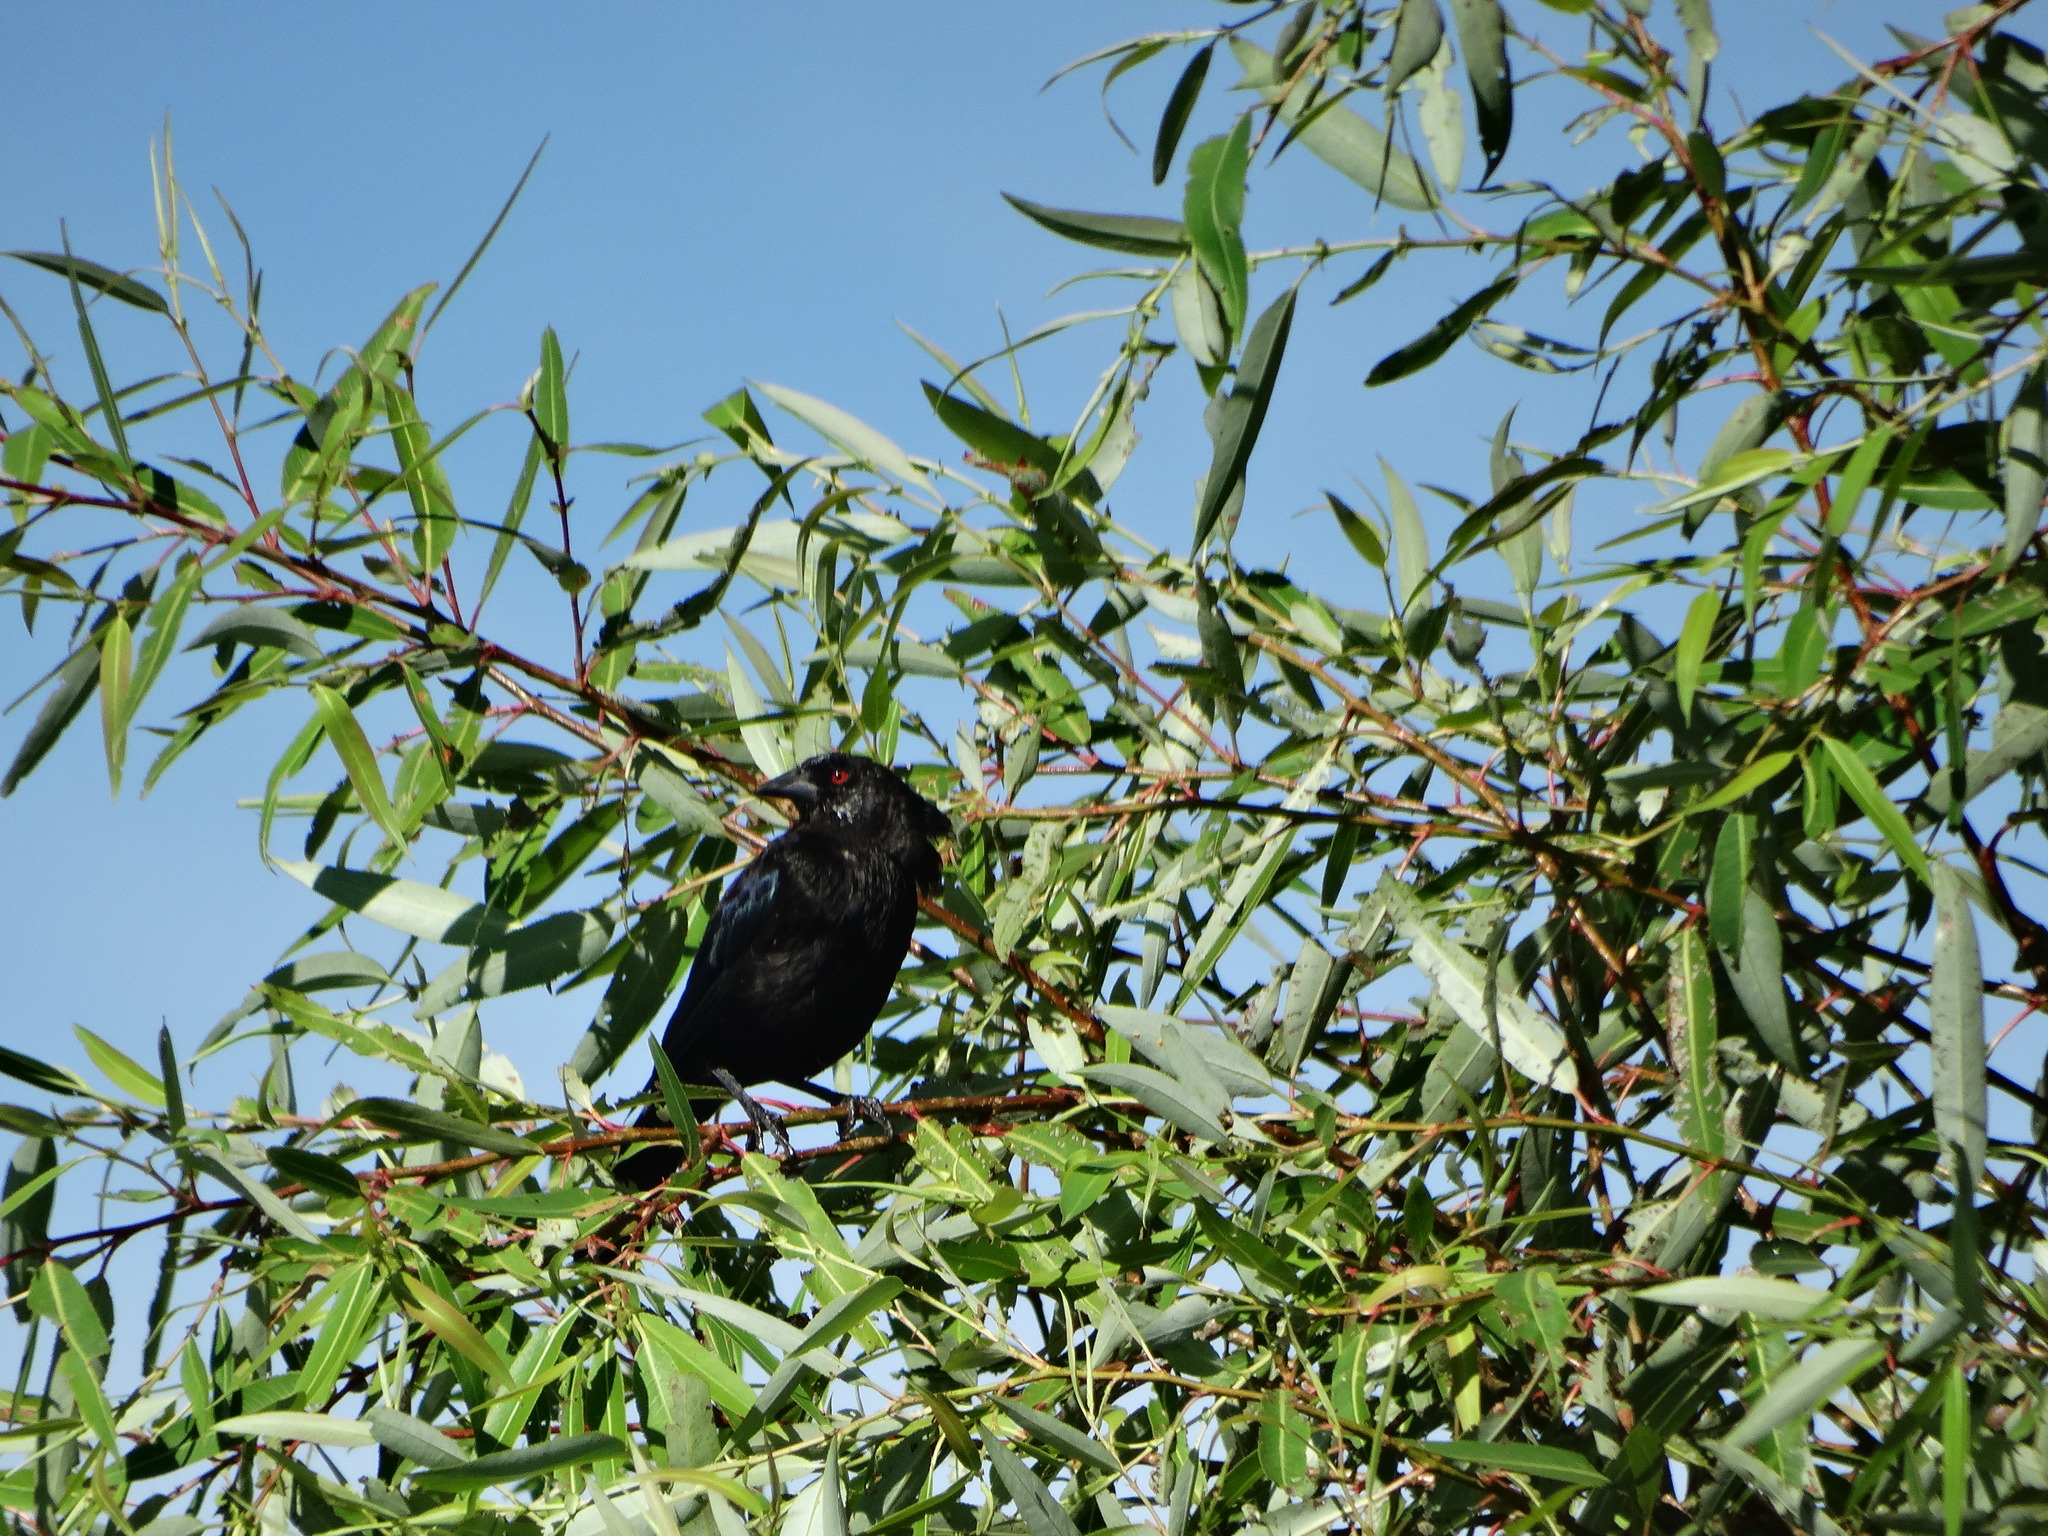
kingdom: Animalia
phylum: Chordata
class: Aves
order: Passeriformes
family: Icteridae
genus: Molothrus
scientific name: Molothrus aeneus
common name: Bronzed cowbird
